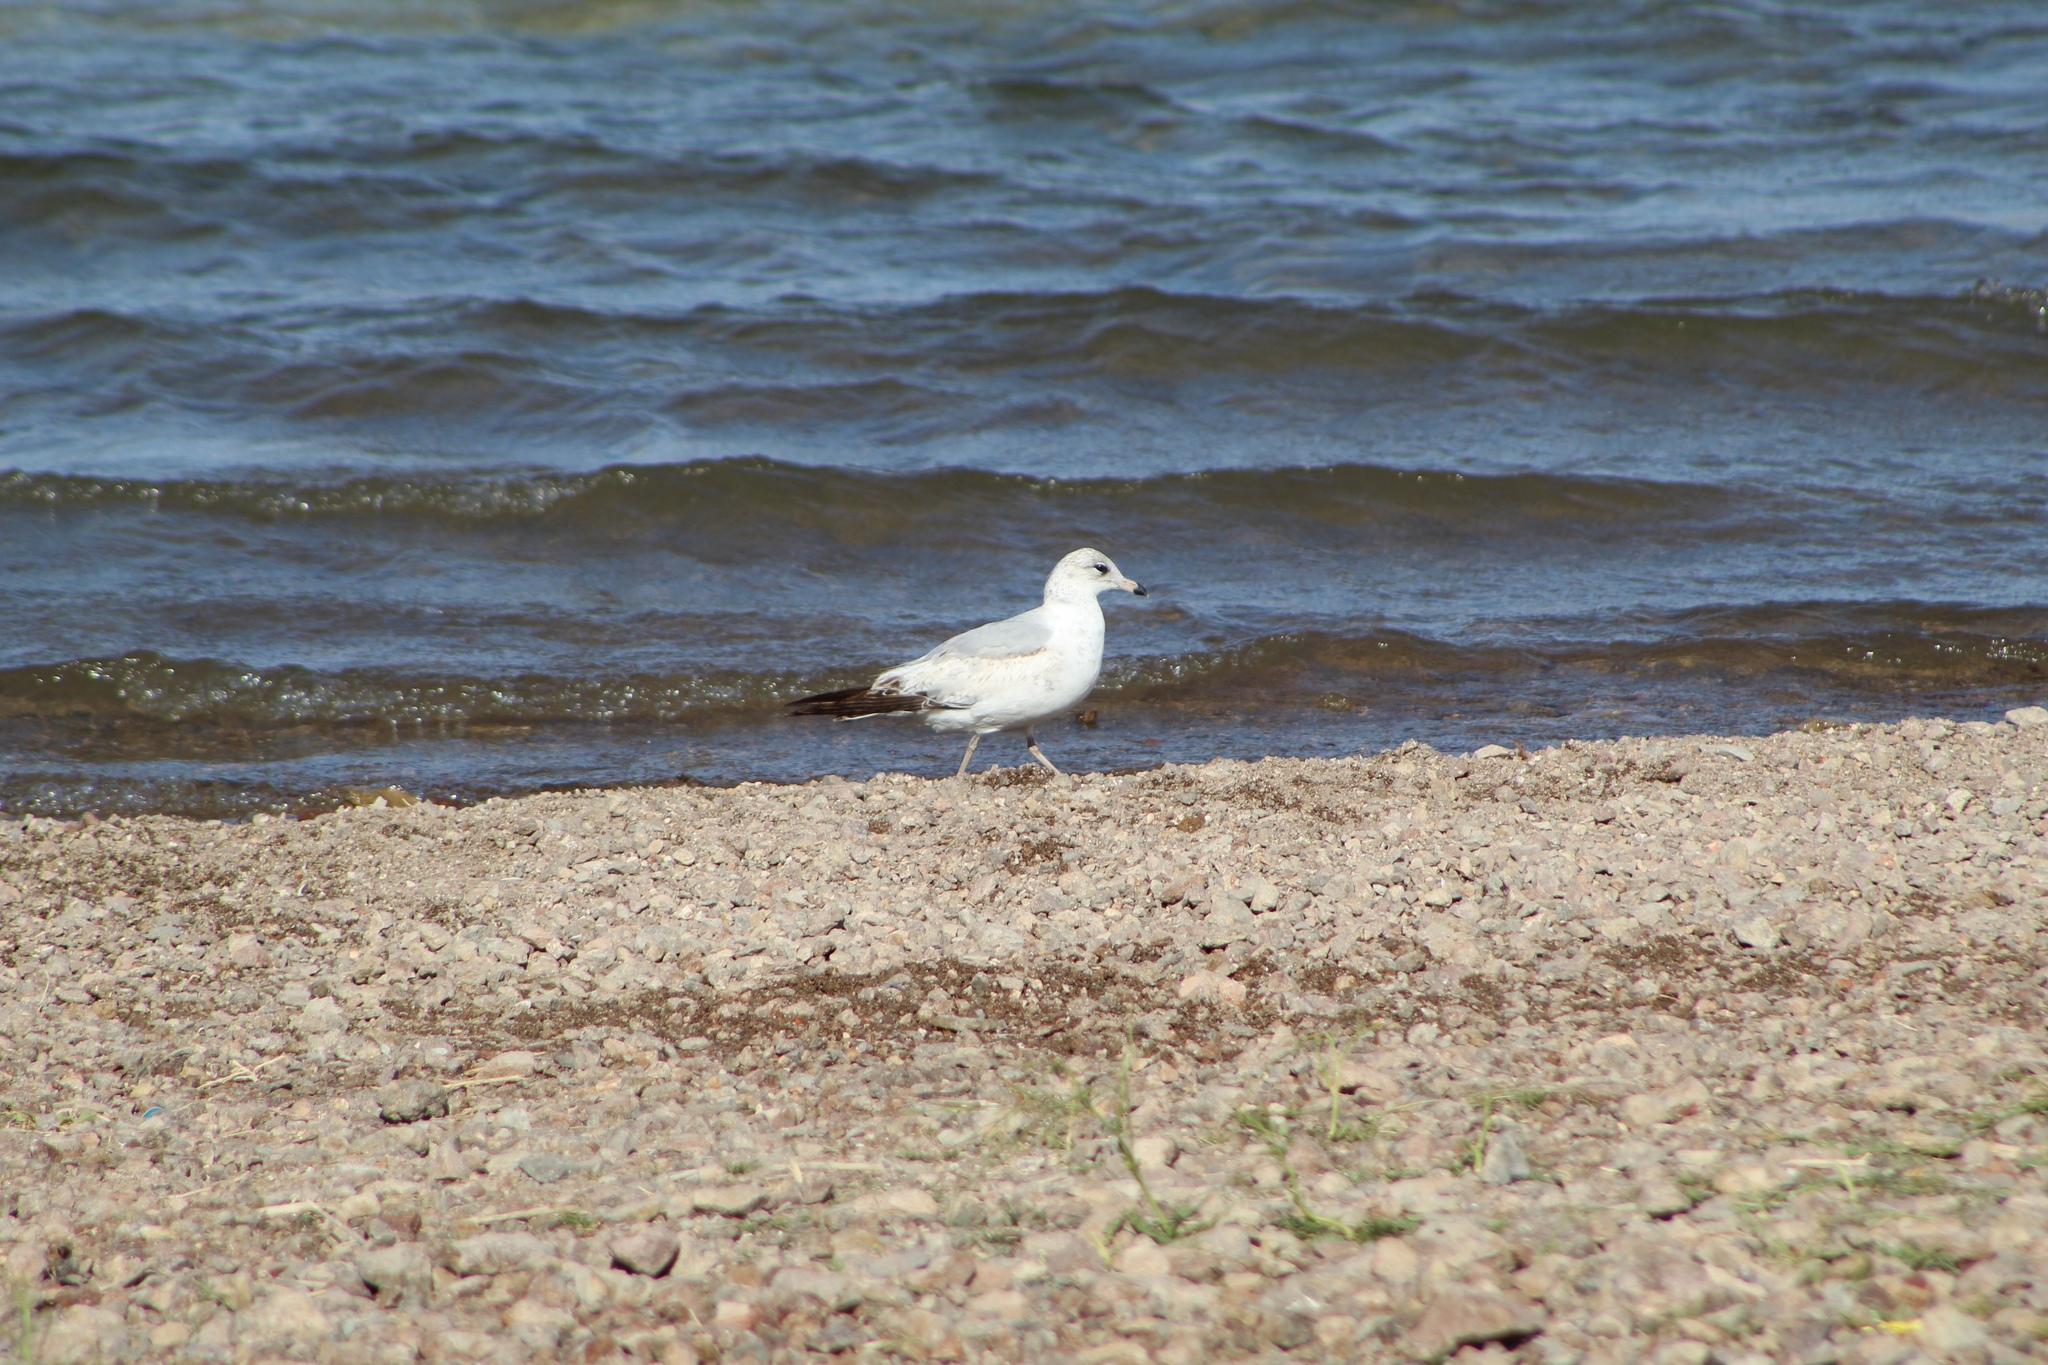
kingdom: Animalia
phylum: Chordata
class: Aves
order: Charadriiformes
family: Laridae
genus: Larus
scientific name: Larus delawarensis
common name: Ring-billed gull
